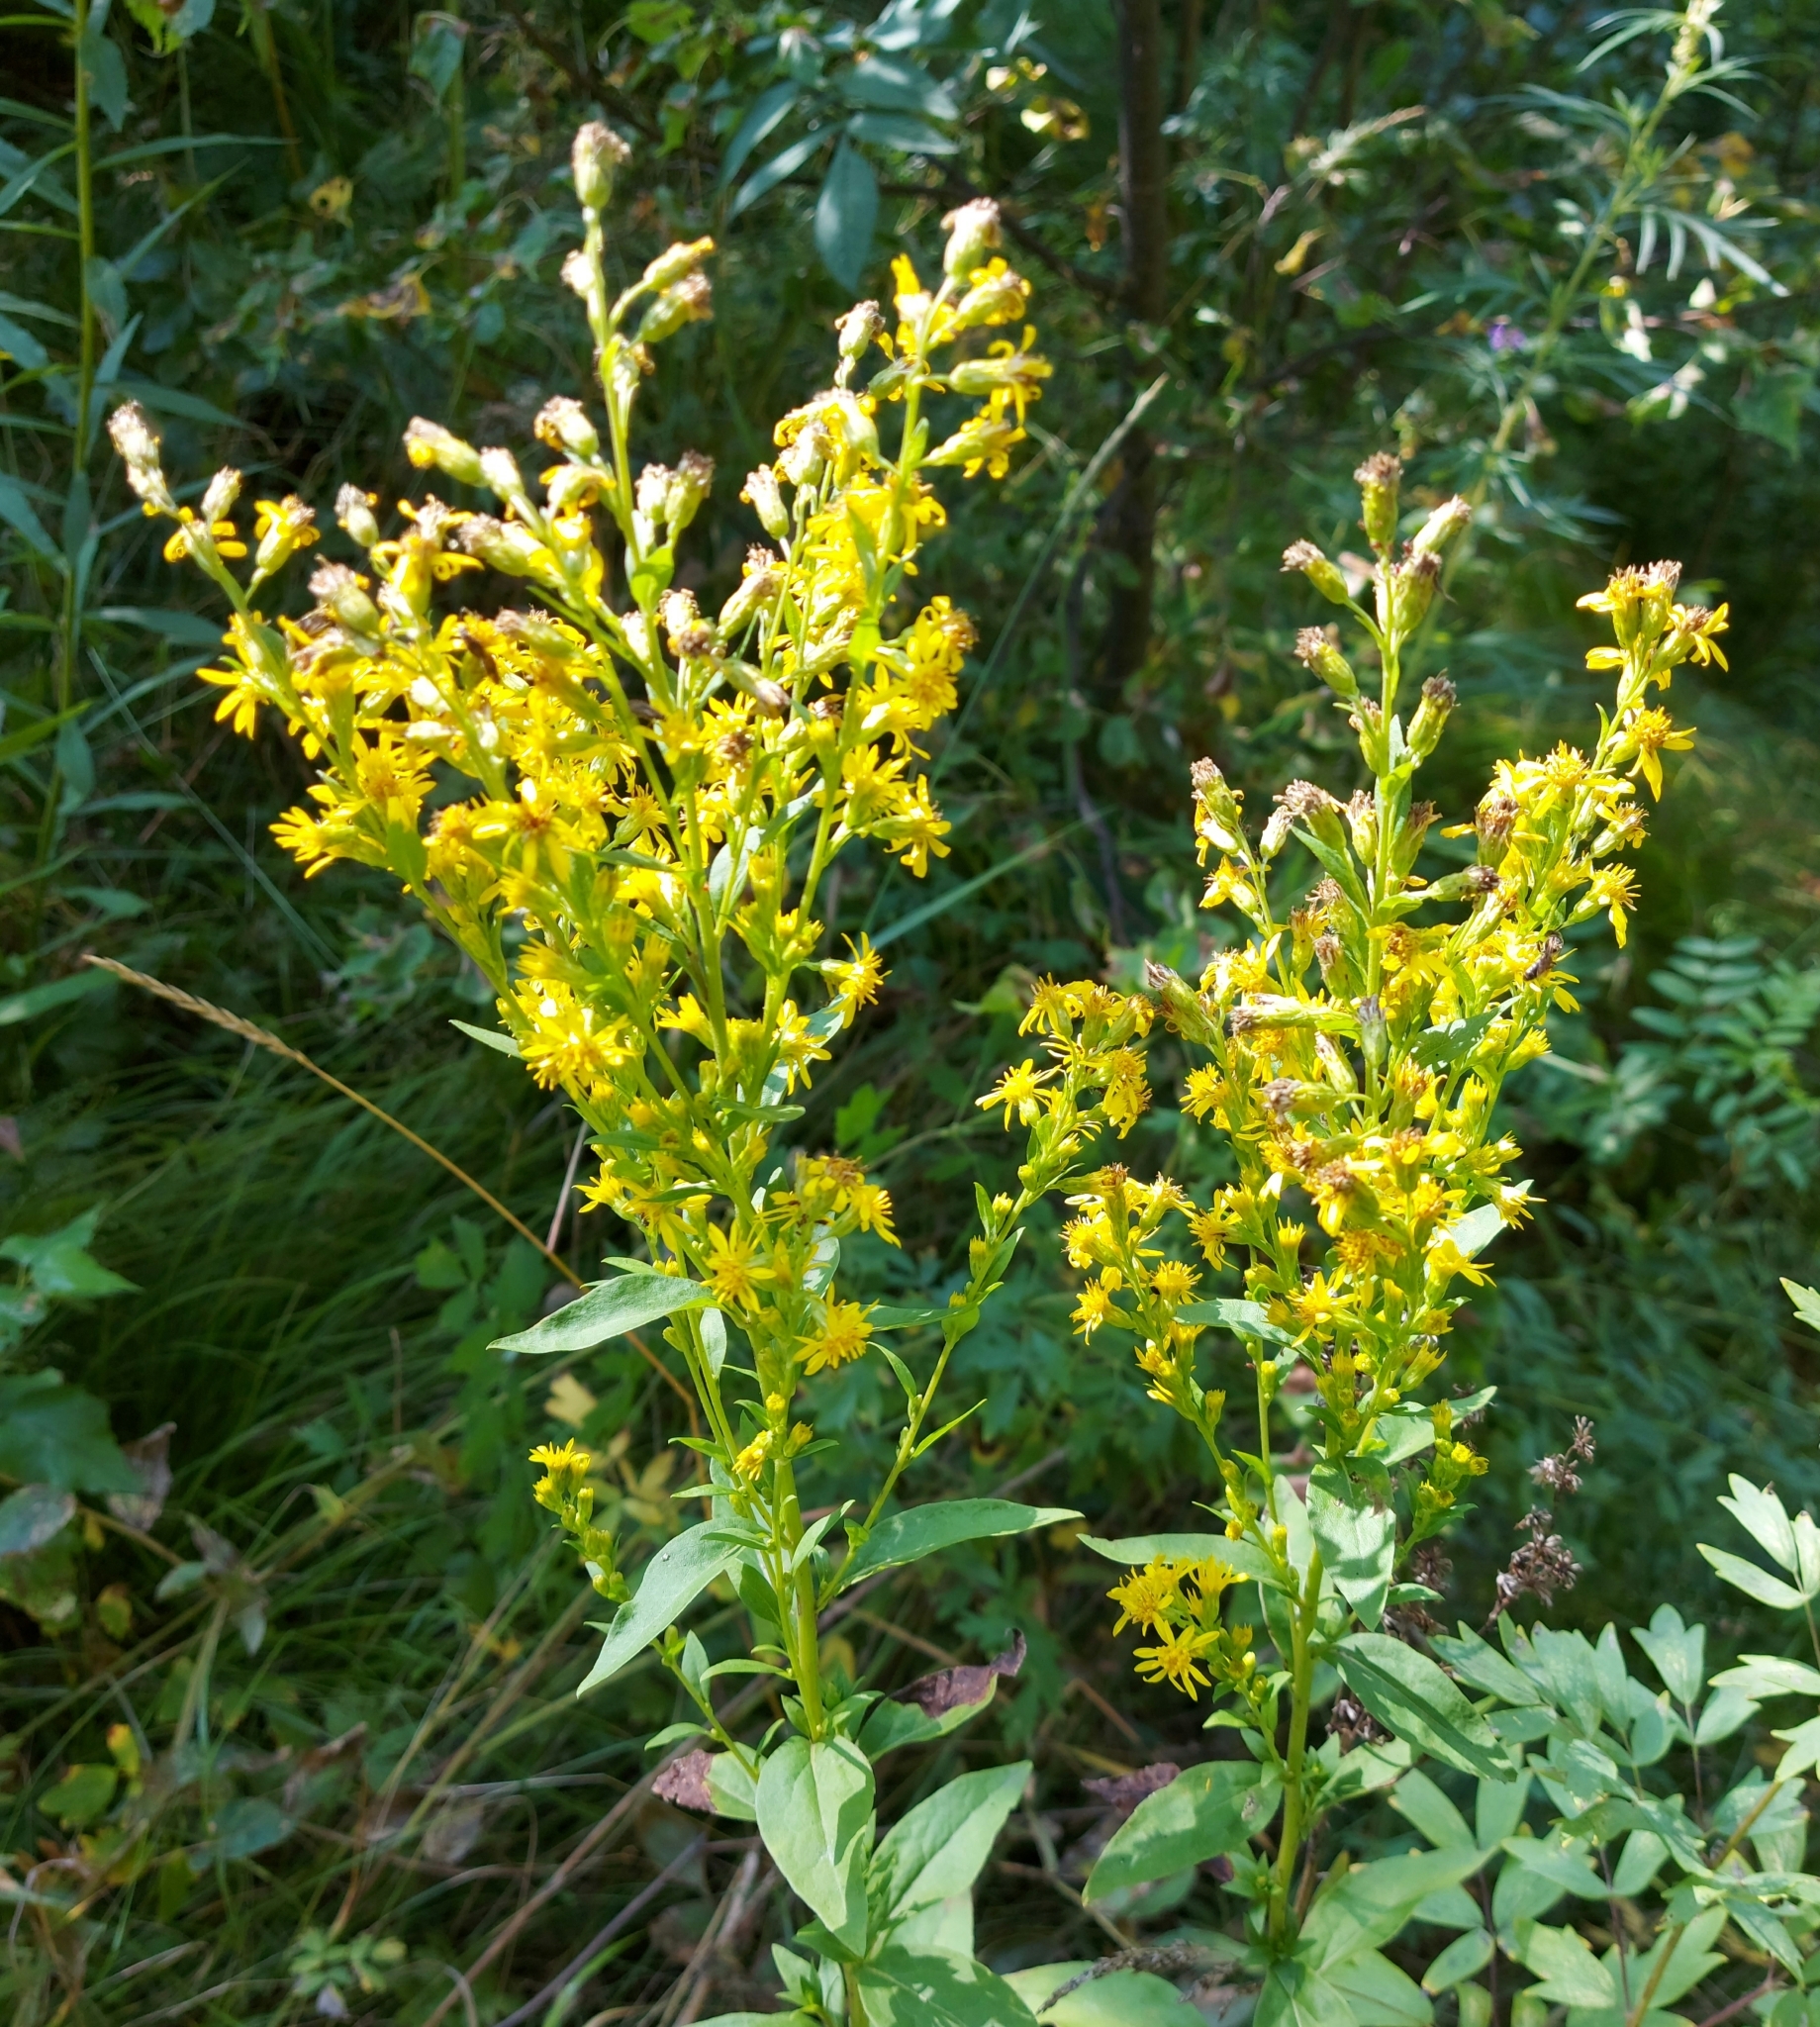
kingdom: Plantae
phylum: Tracheophyta
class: Magnoliopsida
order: Asterales
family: Asteraceae
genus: Solidago
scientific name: Solidago virgaurea
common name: Goldenrod
